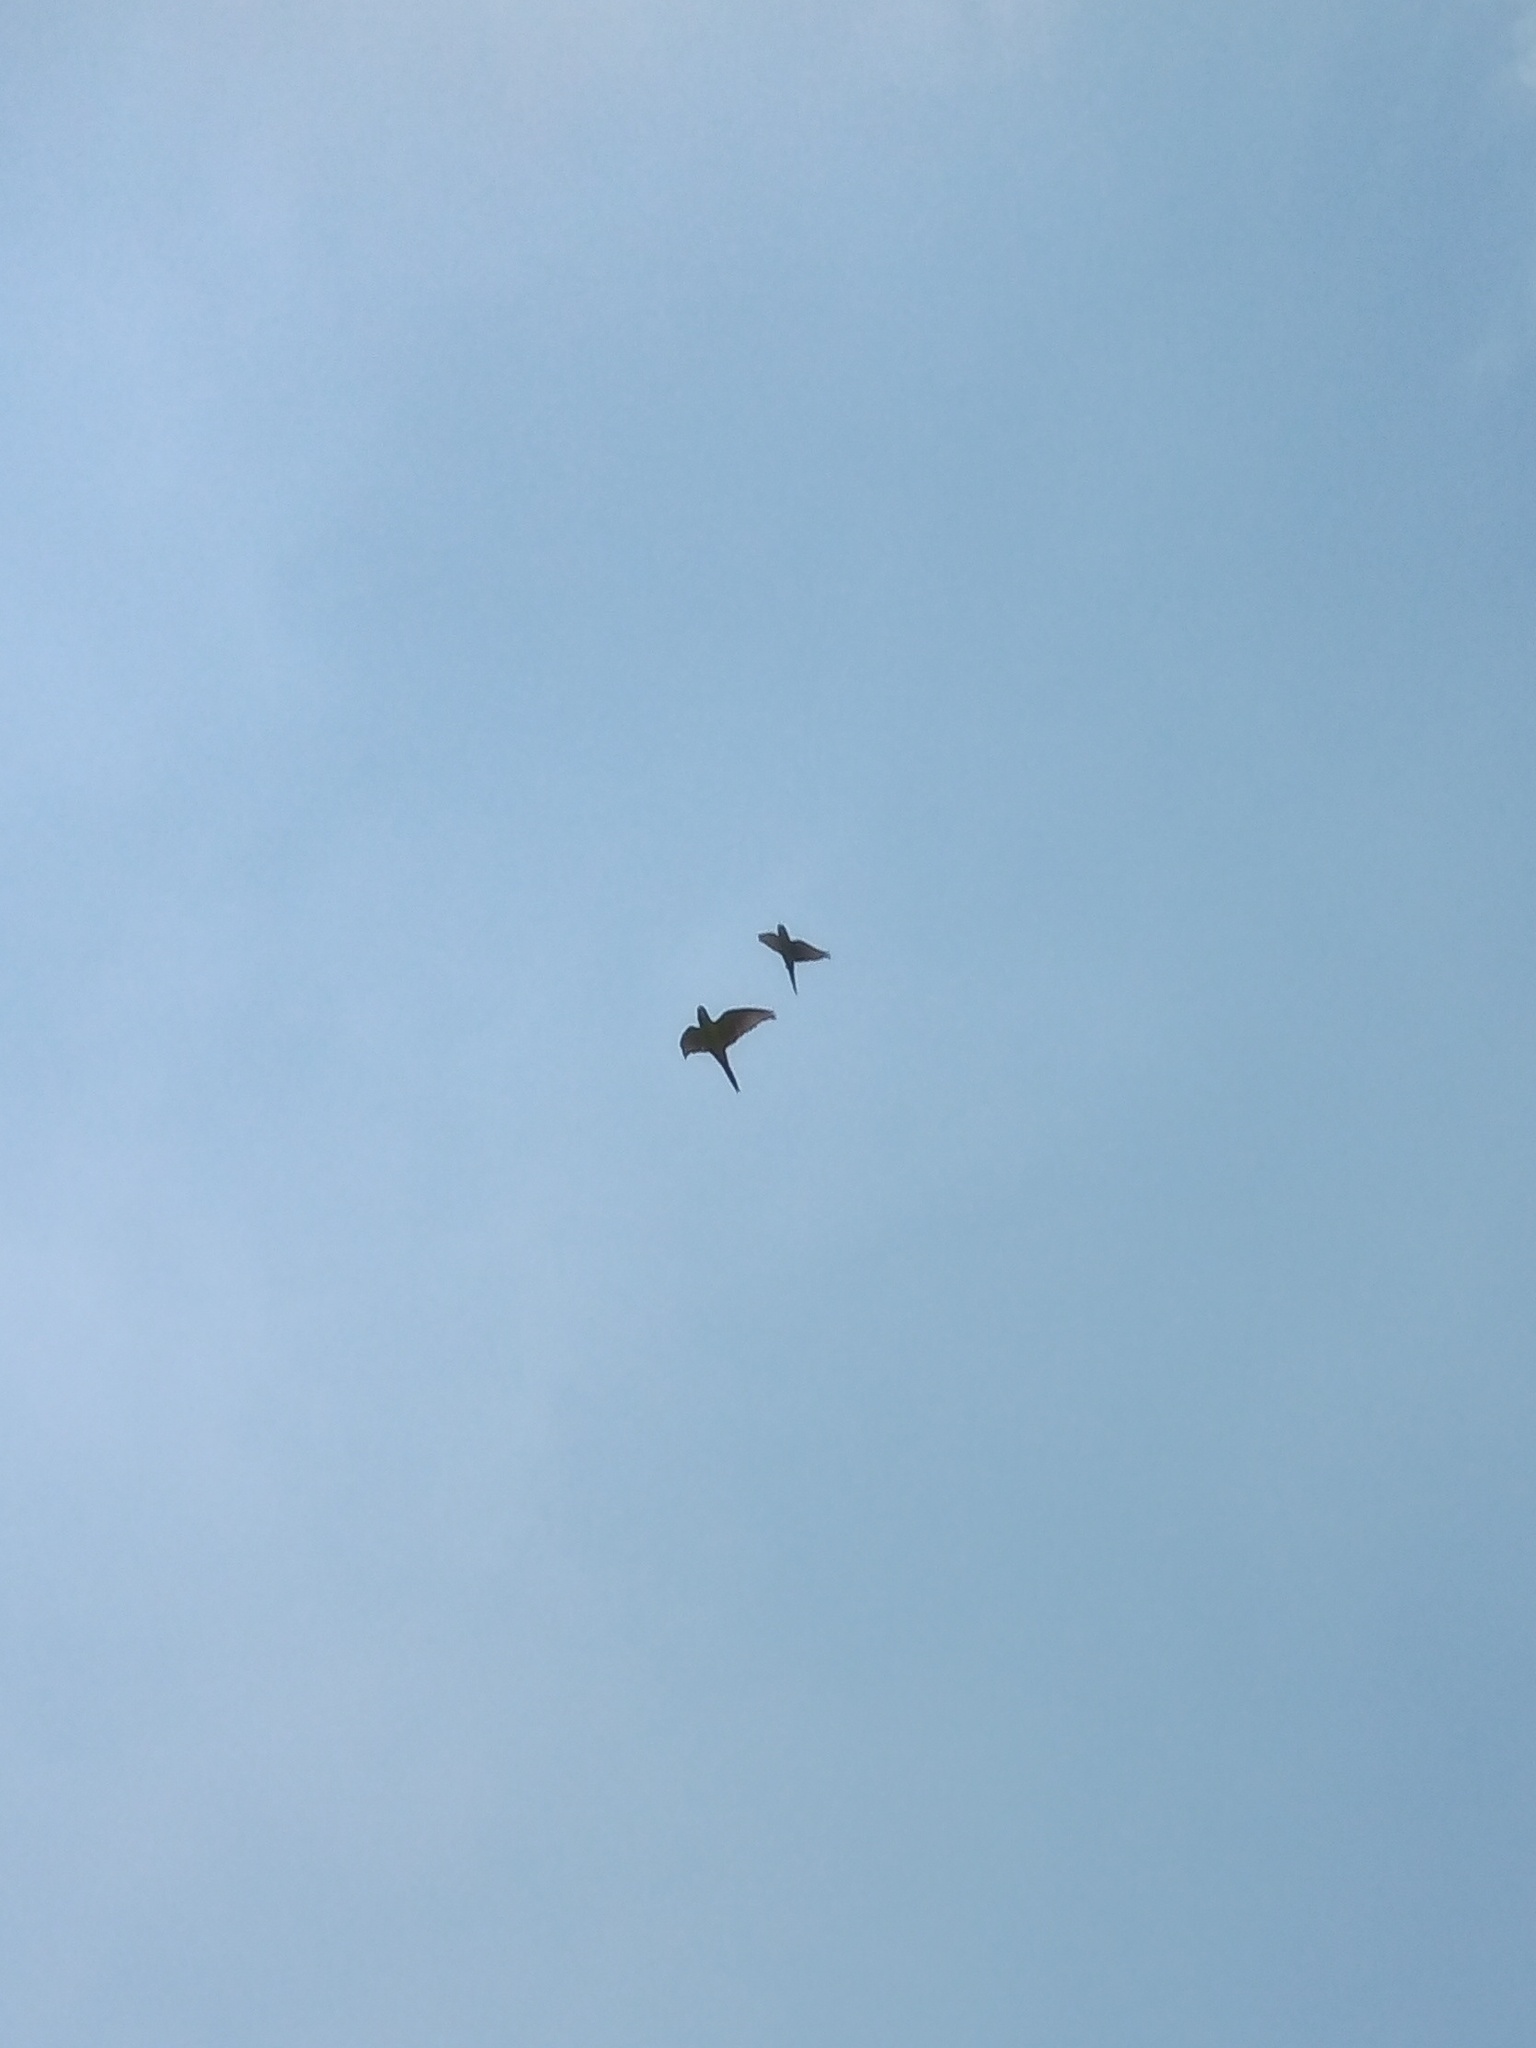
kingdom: Animalia
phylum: Chordata
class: Aves
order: Psittaciformes
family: Psittacidae
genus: Myiopsitta
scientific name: Myiopsitta monachus
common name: Monk parakeet
